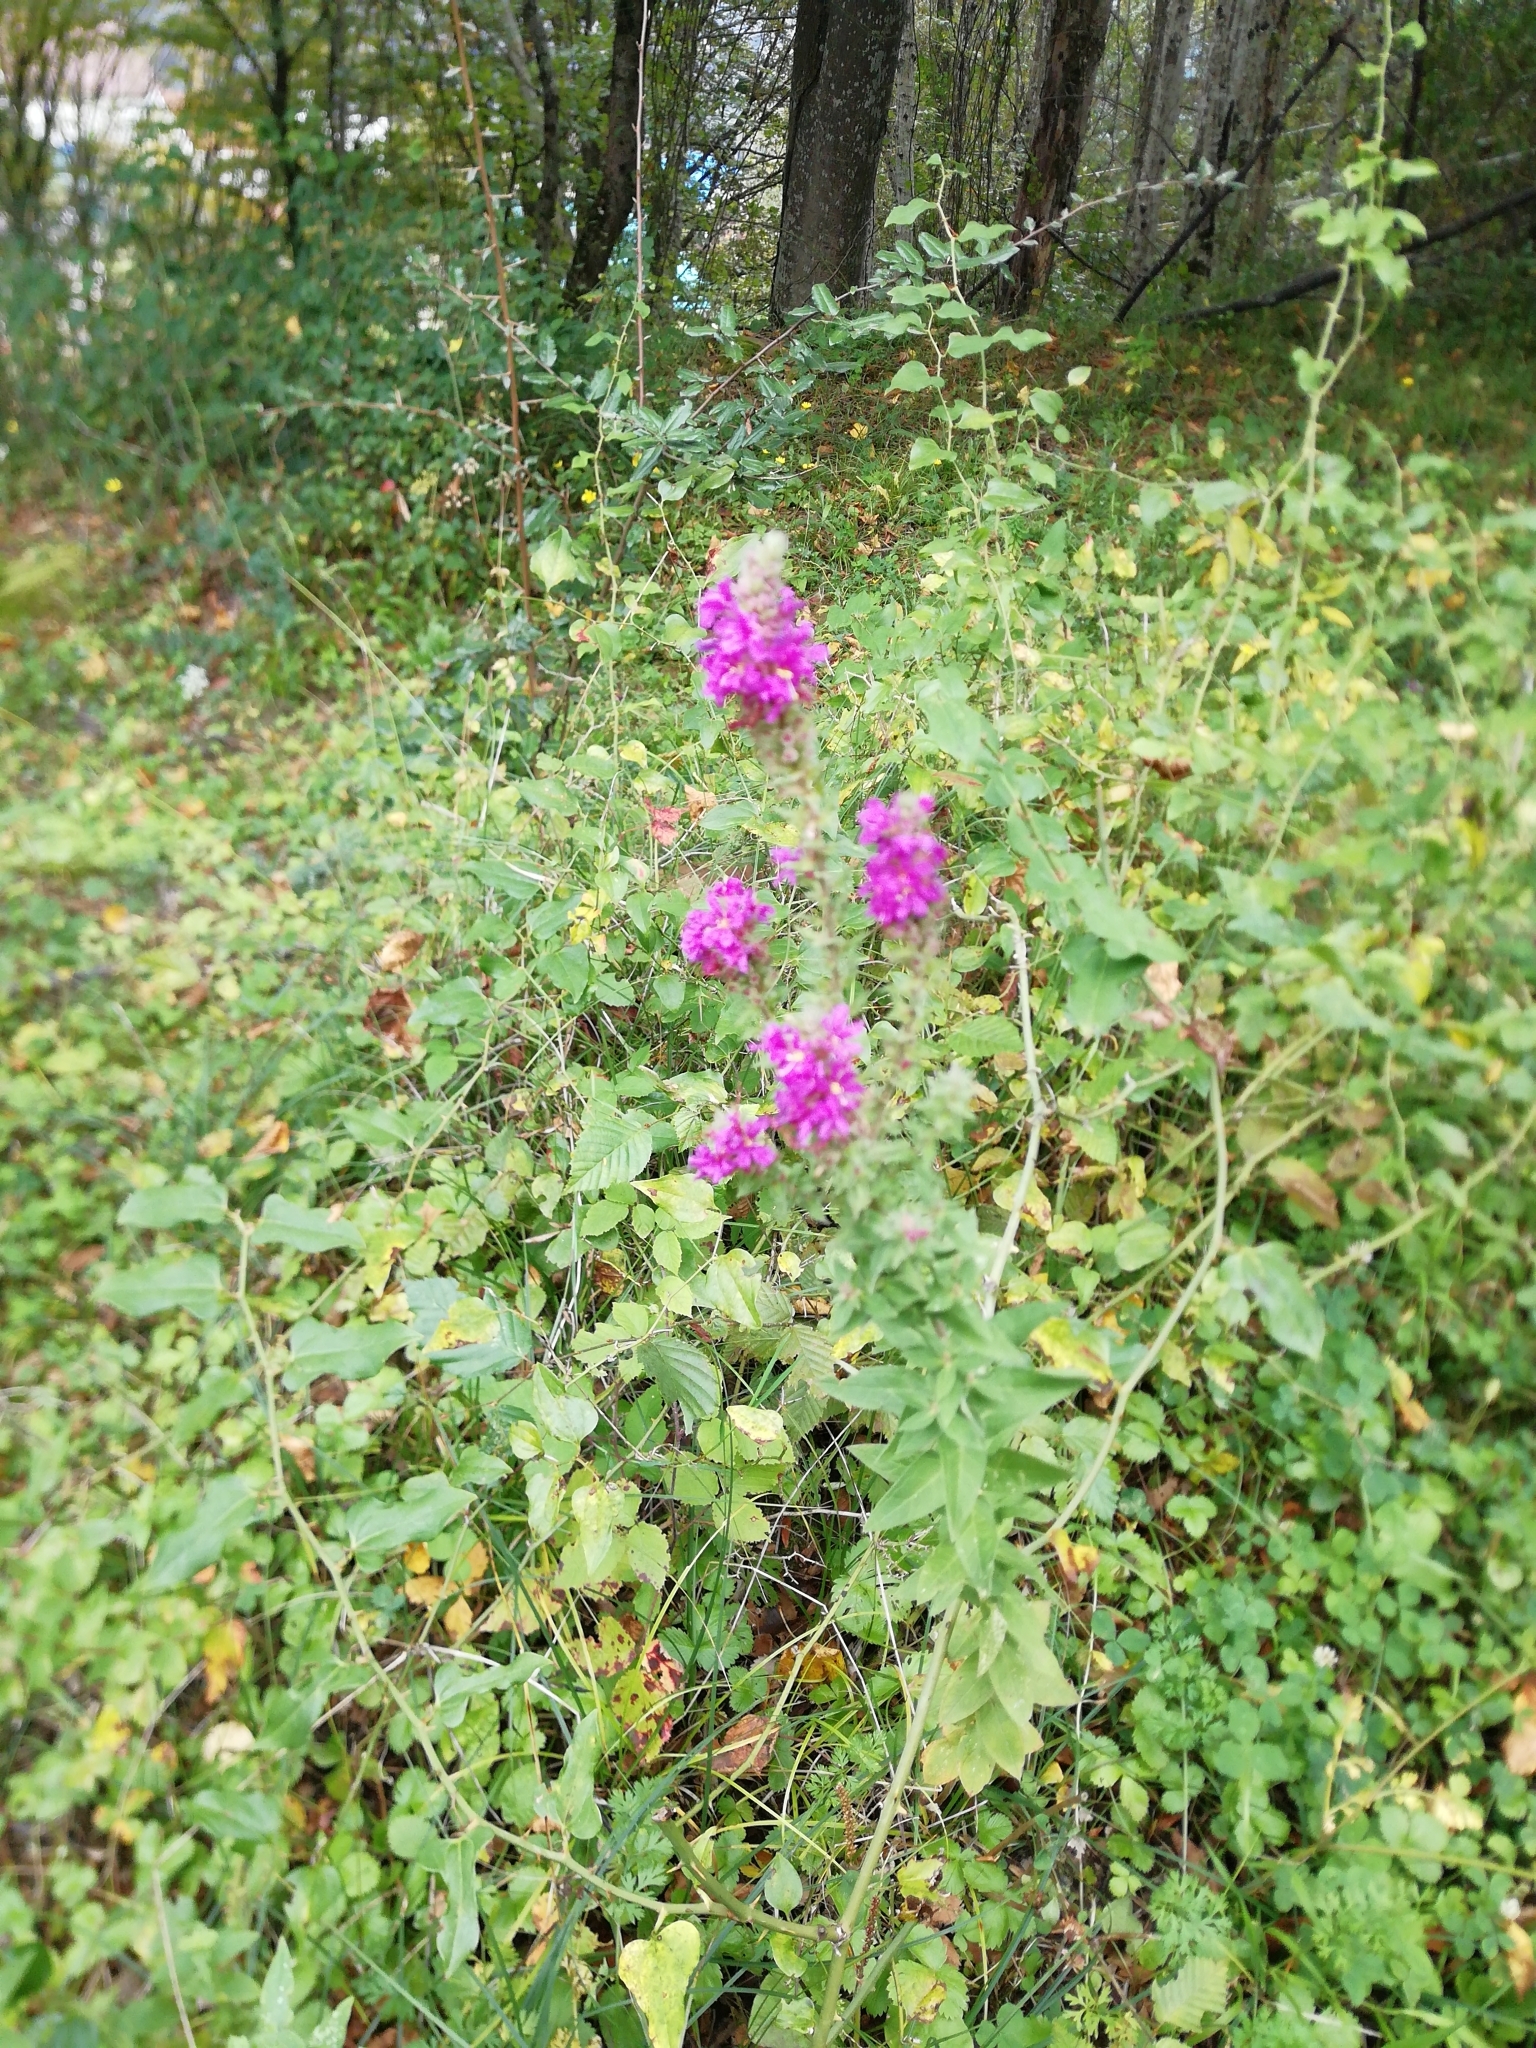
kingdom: Plantae
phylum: Tracheophyta
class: Magnoliopsida
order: Myrtales
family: Lythraceae
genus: Lythrum
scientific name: Lythrum salicaria
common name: Purple loosestrife
